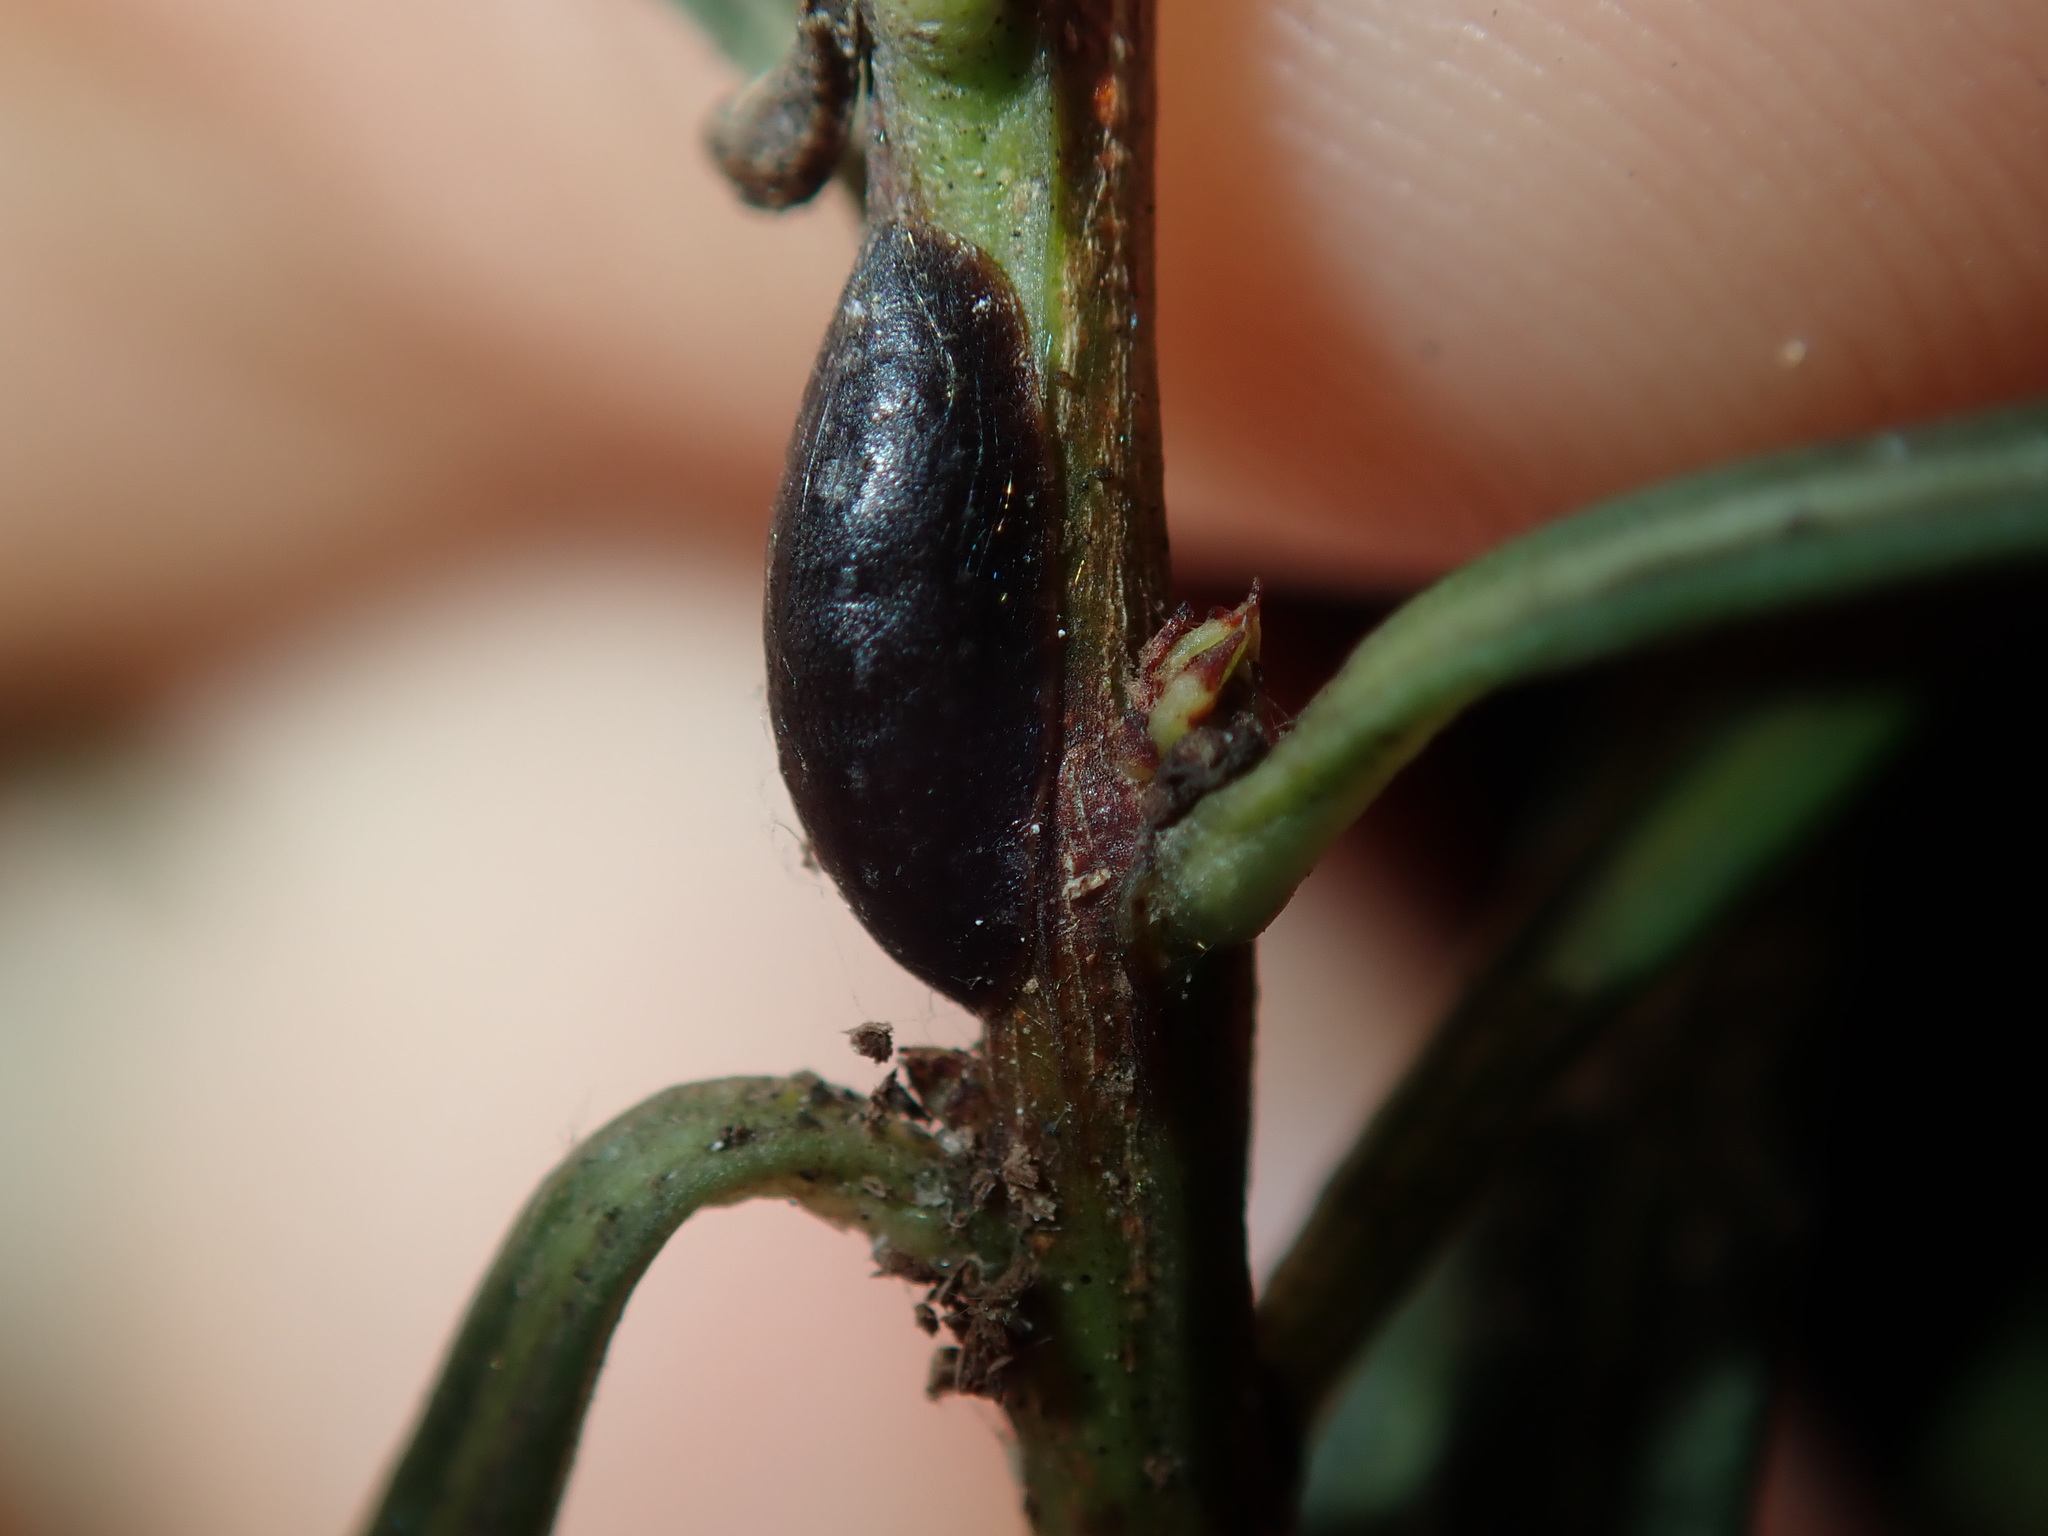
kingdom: Animalia
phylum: Arthropoda
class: Insecta
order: Hemiptera
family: Coccidae
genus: Parasaissetia
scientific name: Parasaissetia nigra
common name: Black scale
